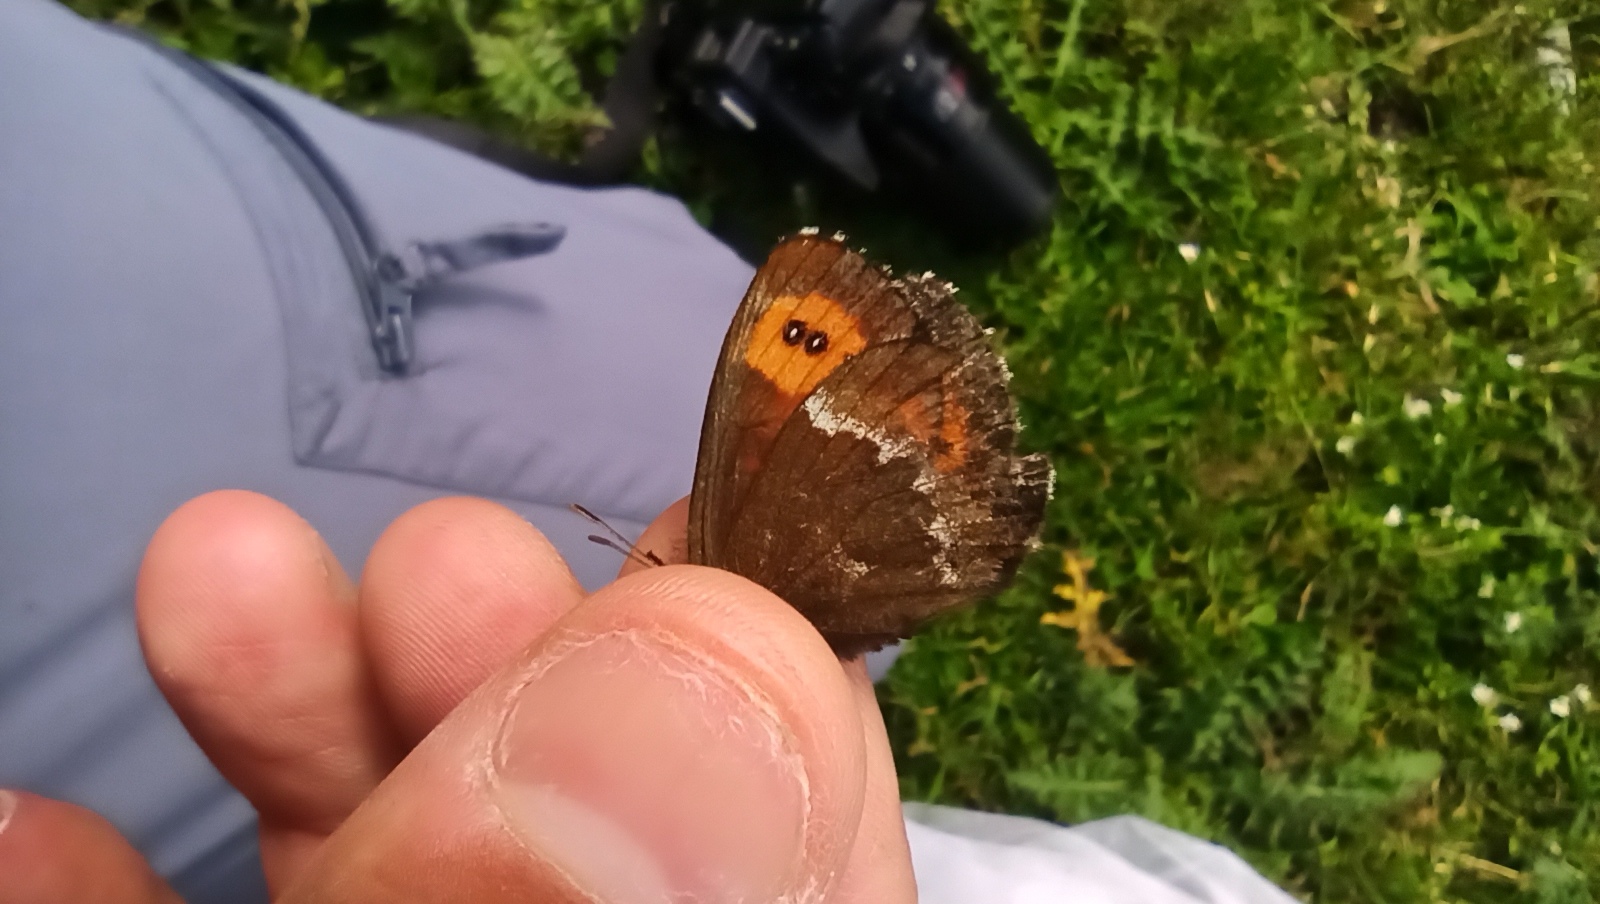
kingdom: Animalia
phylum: Arthropoda
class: Insecta
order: Lepidoptera
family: Nymphalidae
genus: Erebia
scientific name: Erebia ligea
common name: Arran brown
